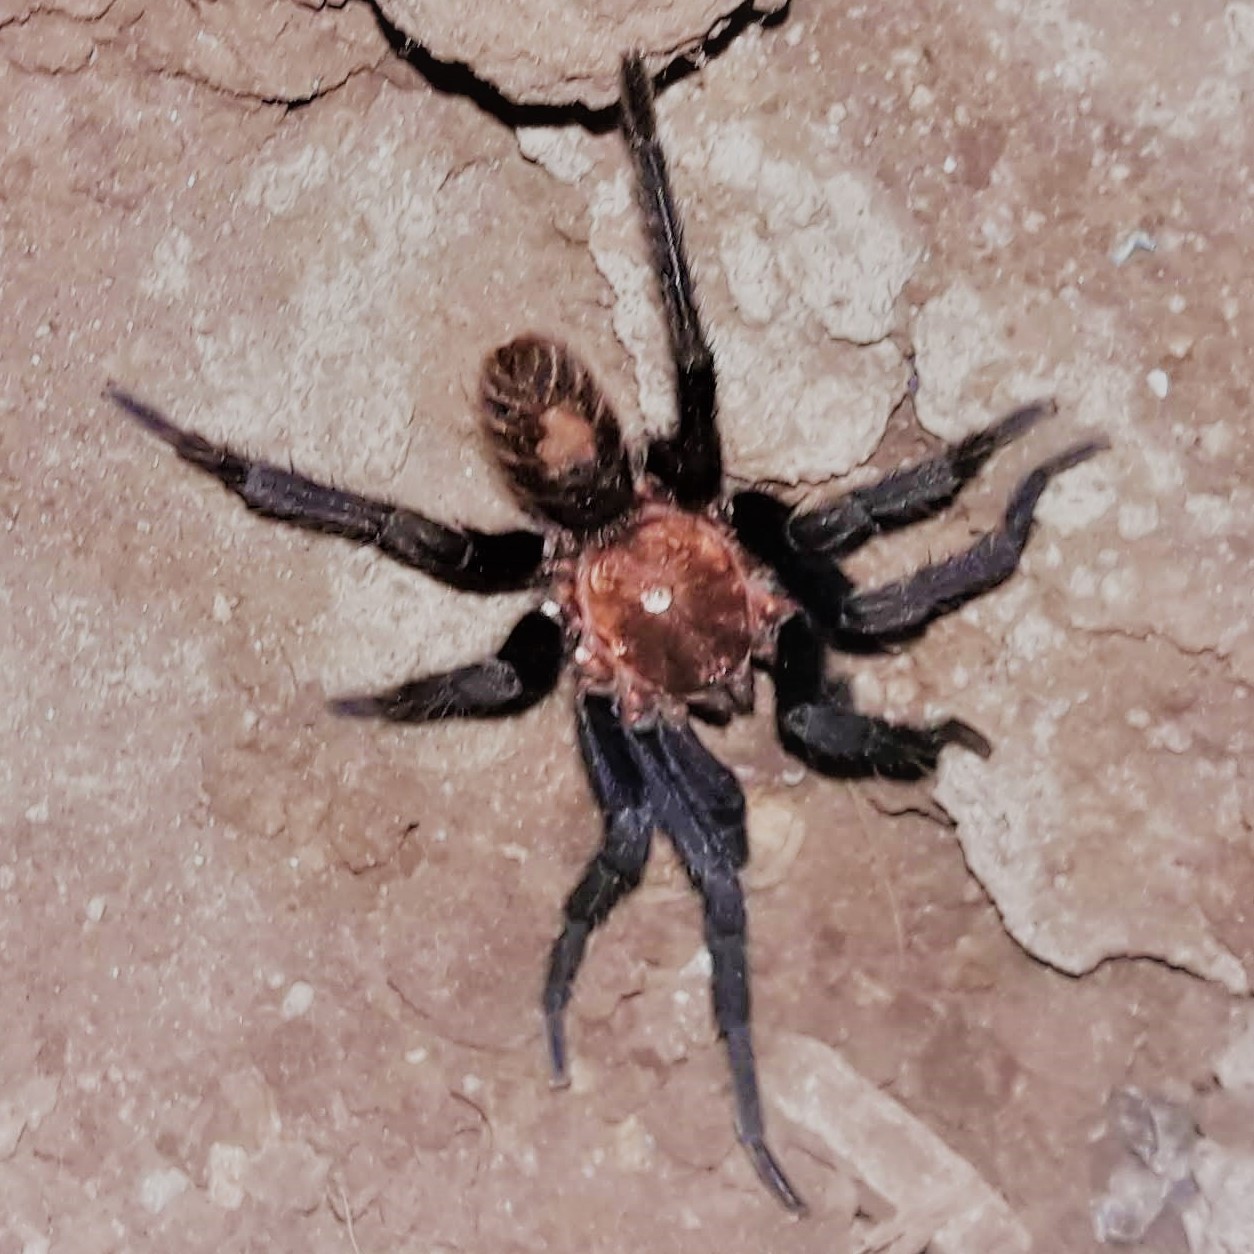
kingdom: Animalia
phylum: Arthropoda
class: Arachnida
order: Araneae
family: Theraphosidae
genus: Davus
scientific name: Davus ruficeps
